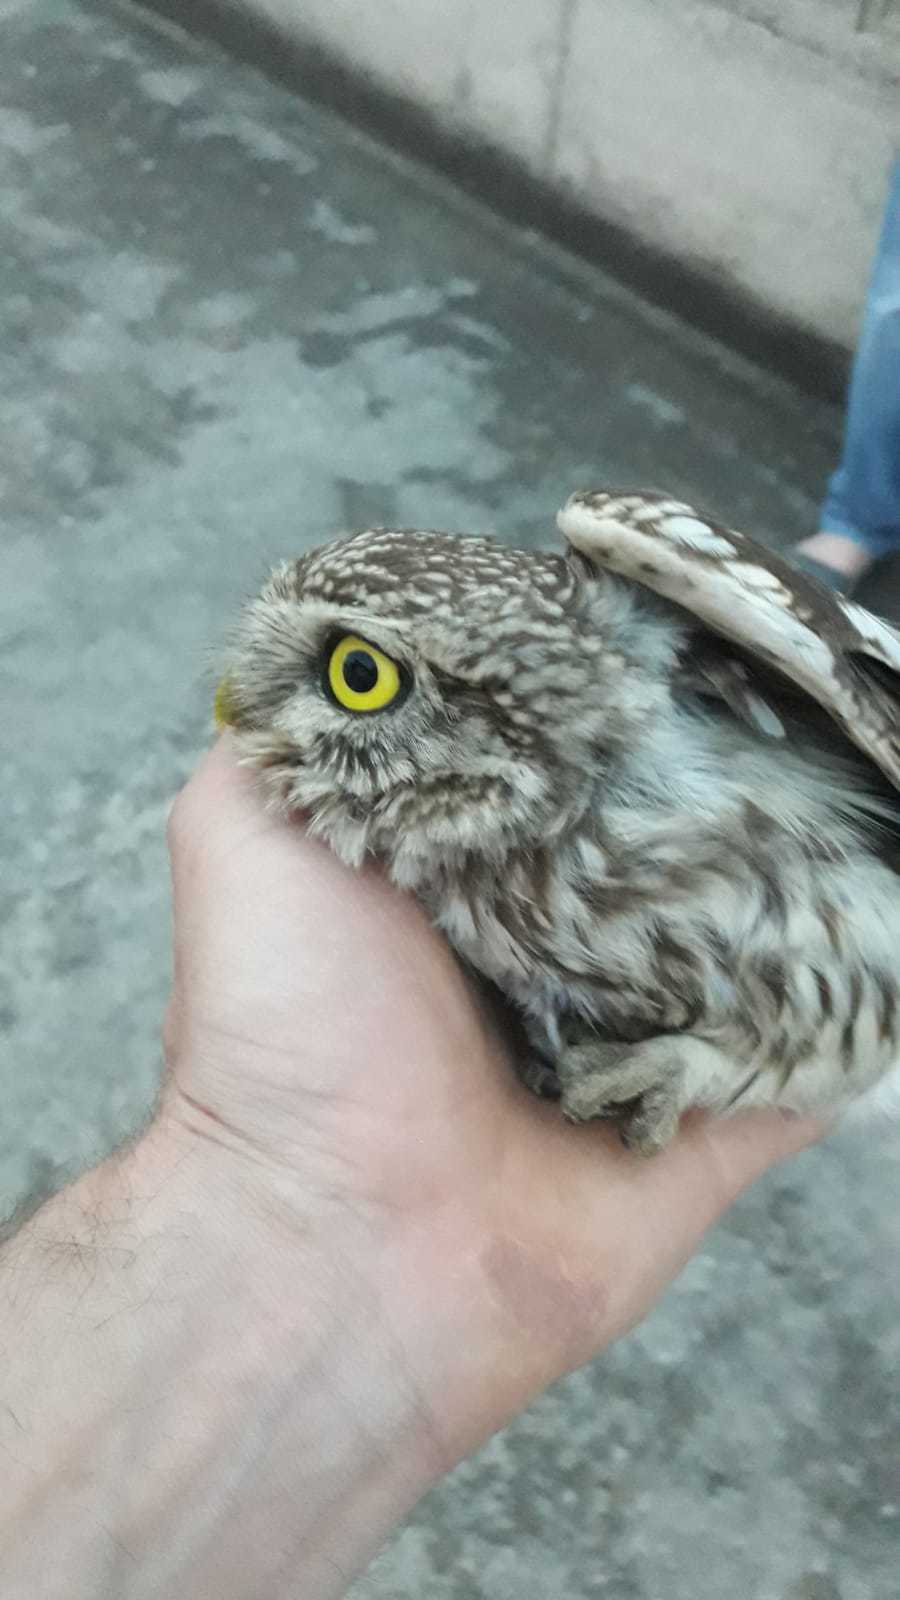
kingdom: Animalia
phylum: Chordata
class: Aves
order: Strigiformes
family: Strigidae
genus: Athene
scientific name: Athene noctua
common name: Little owl
